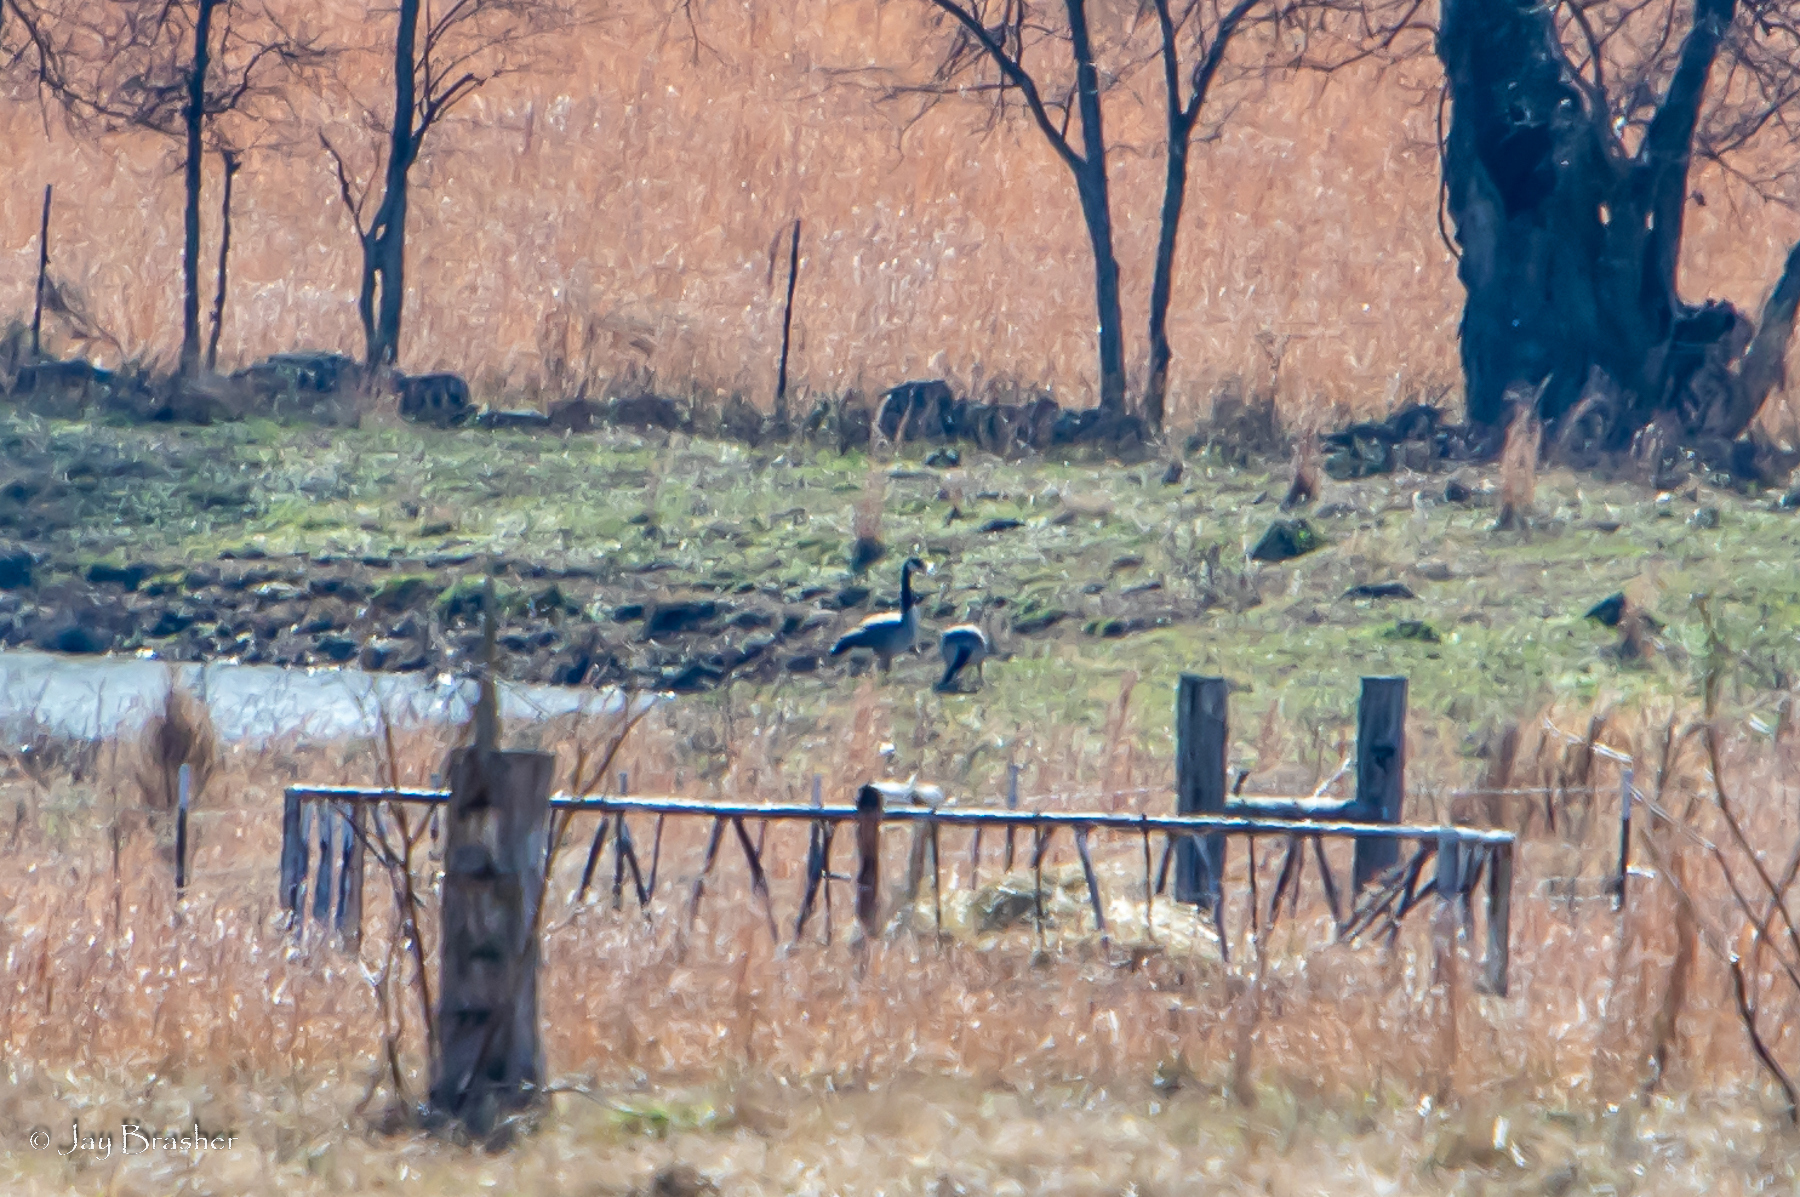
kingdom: Animalia
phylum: Chordata
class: Aves
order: Anseriformes
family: Anatidae
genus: Branta
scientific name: Branta canadensis
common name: Canada goose
